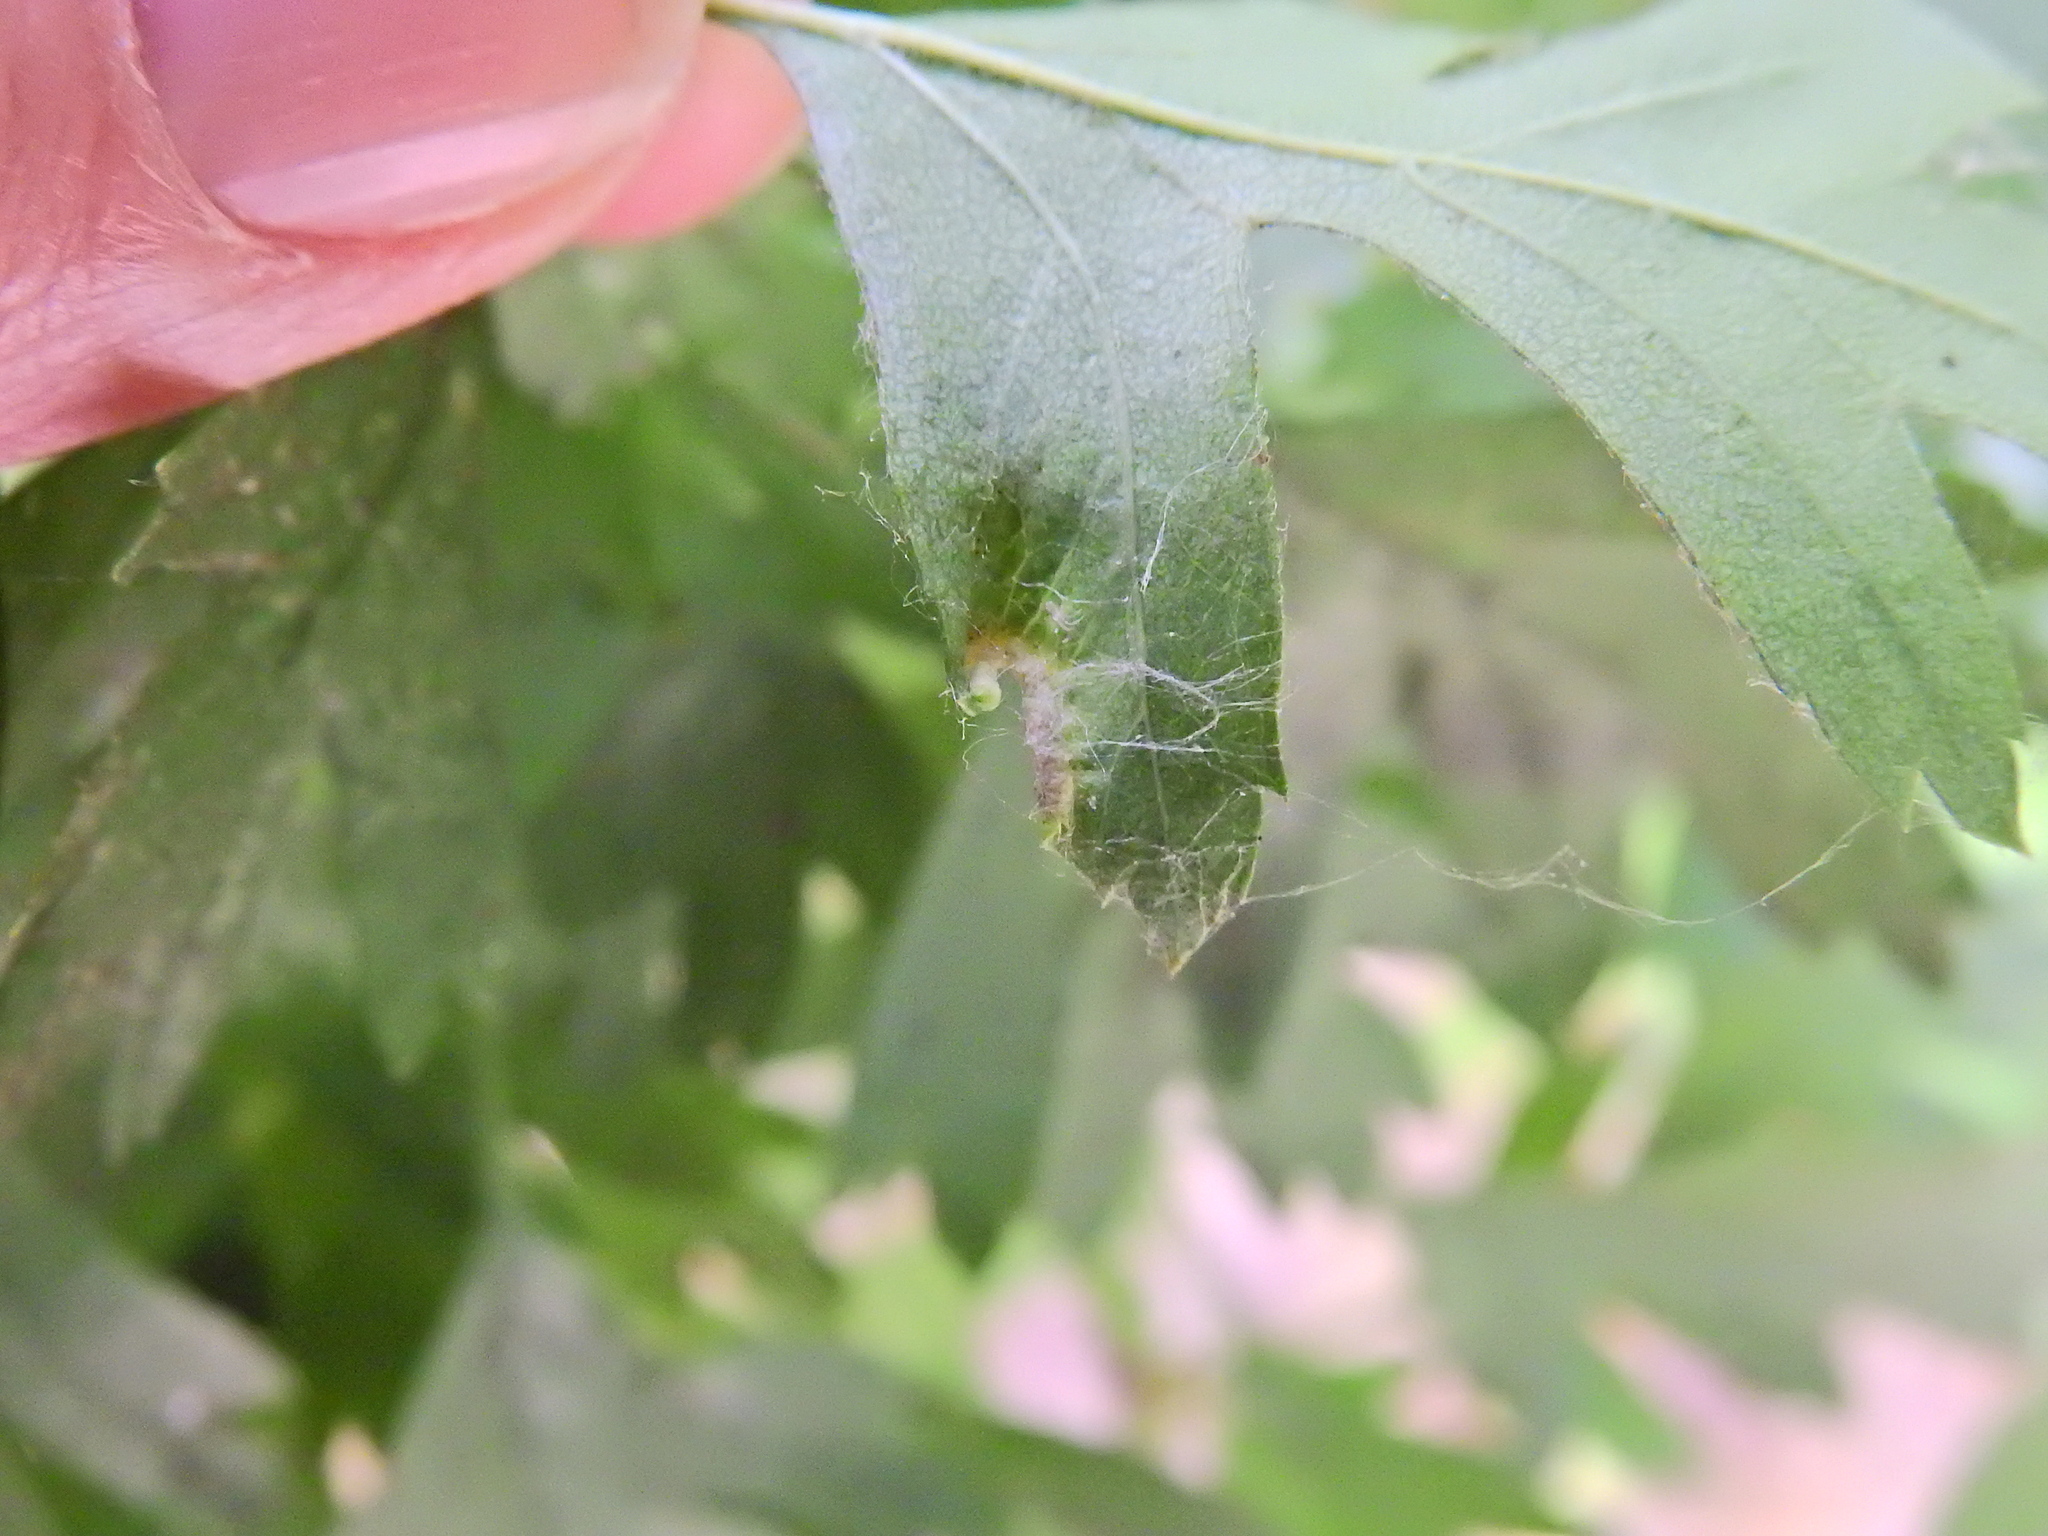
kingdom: Animalia
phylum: Arthropoda
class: Arachnida
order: Trombidiformes
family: Eriophyidae
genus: Phyllocoptes
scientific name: Phyllocoptes goniothorax
